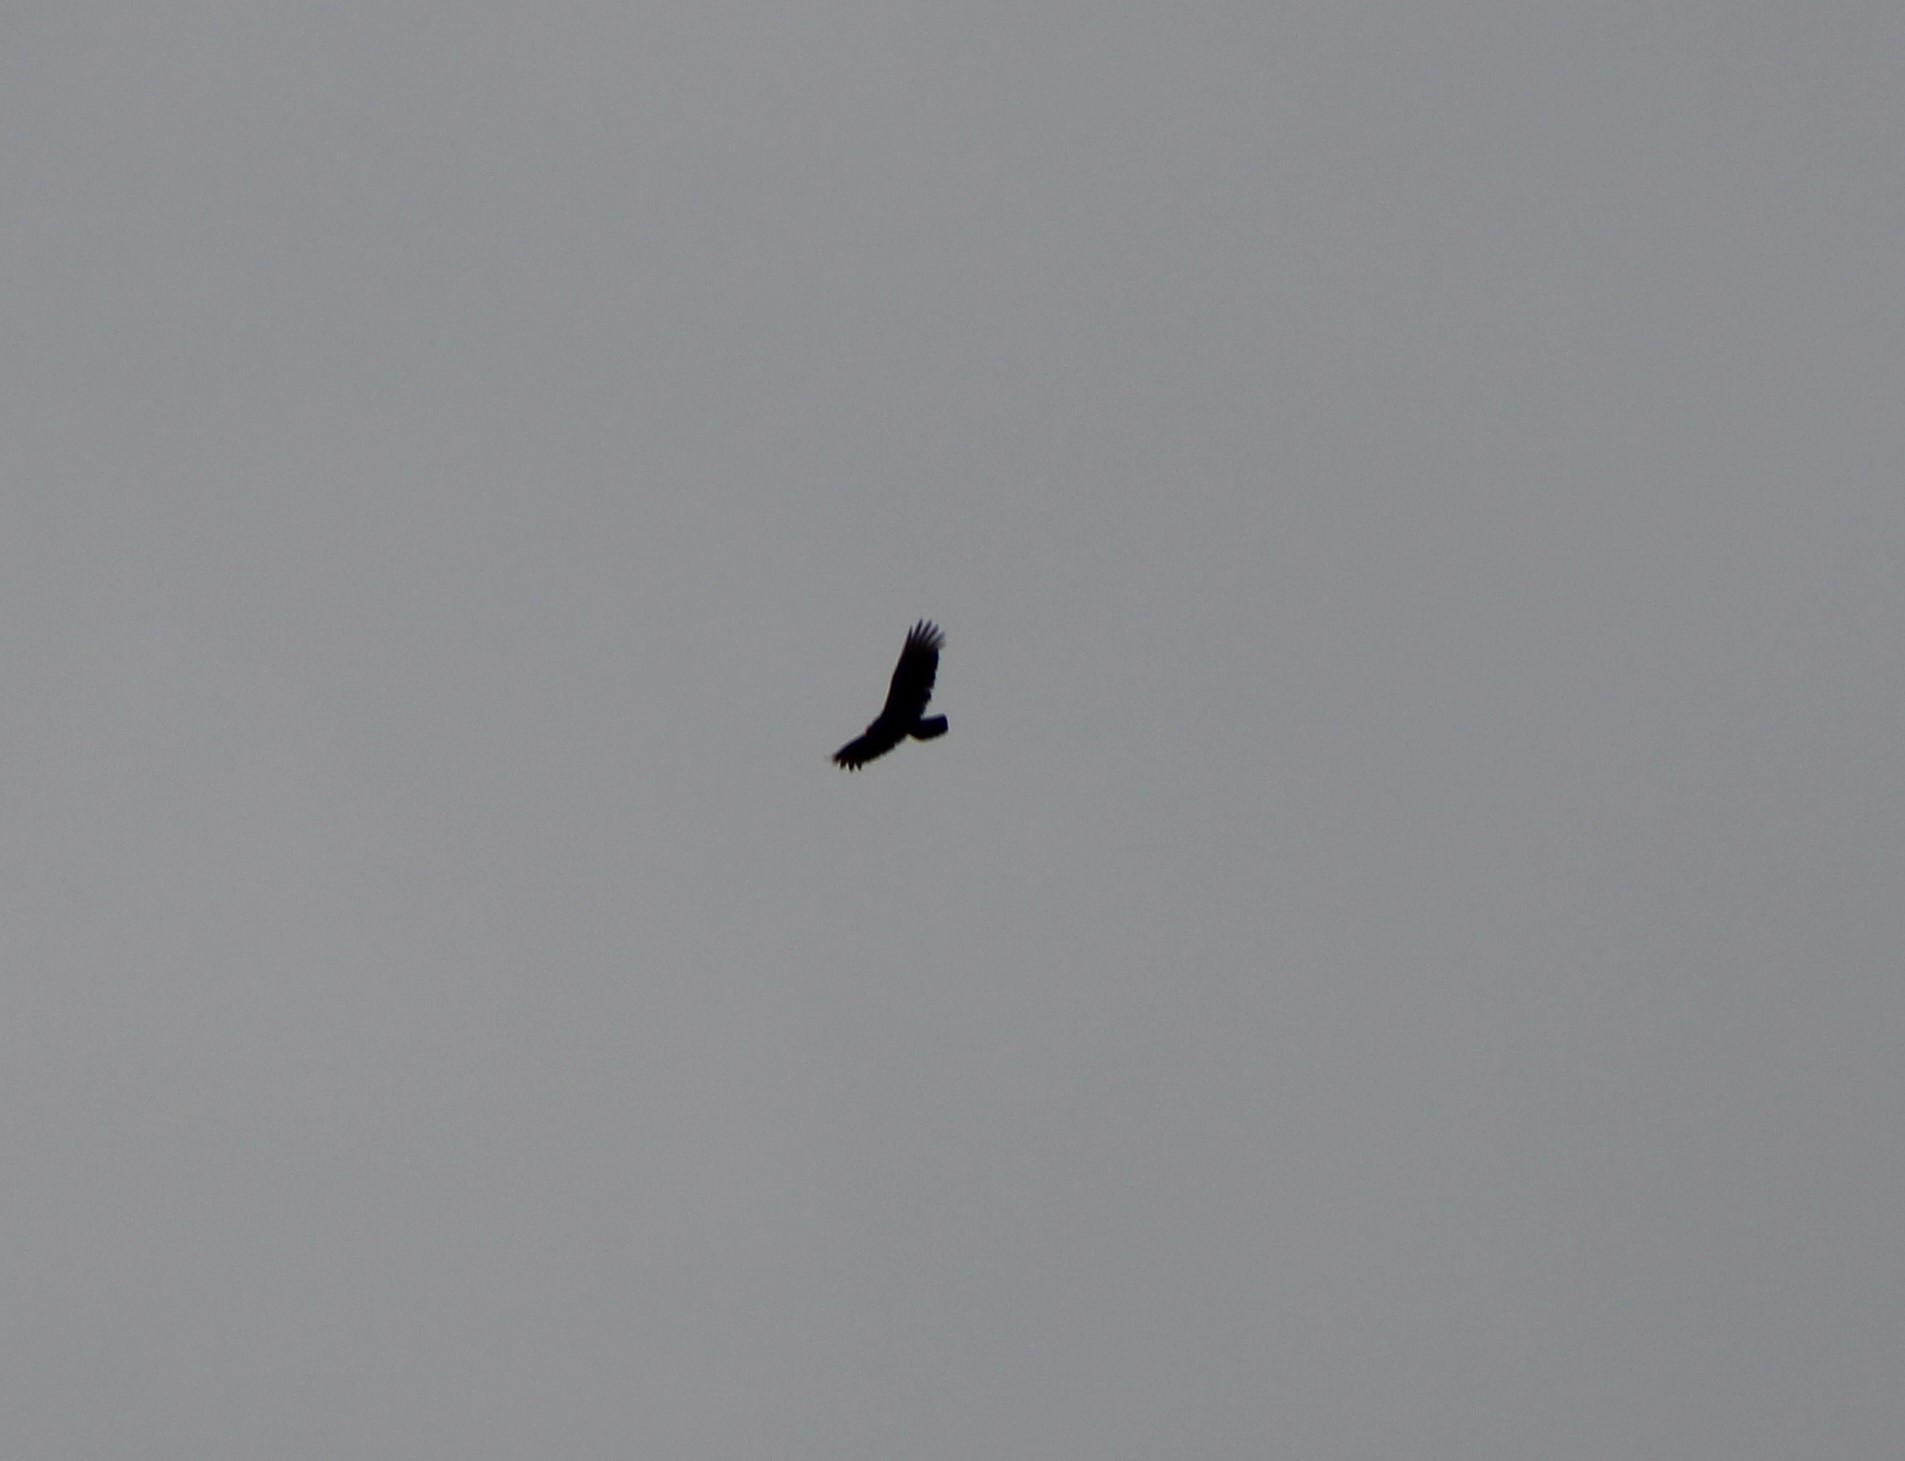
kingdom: Animalia
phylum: Chordata
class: Aves
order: Accipitriformes
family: Cathartidae
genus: Cathartes
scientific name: Cathartes aura
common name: Turkey vulture
